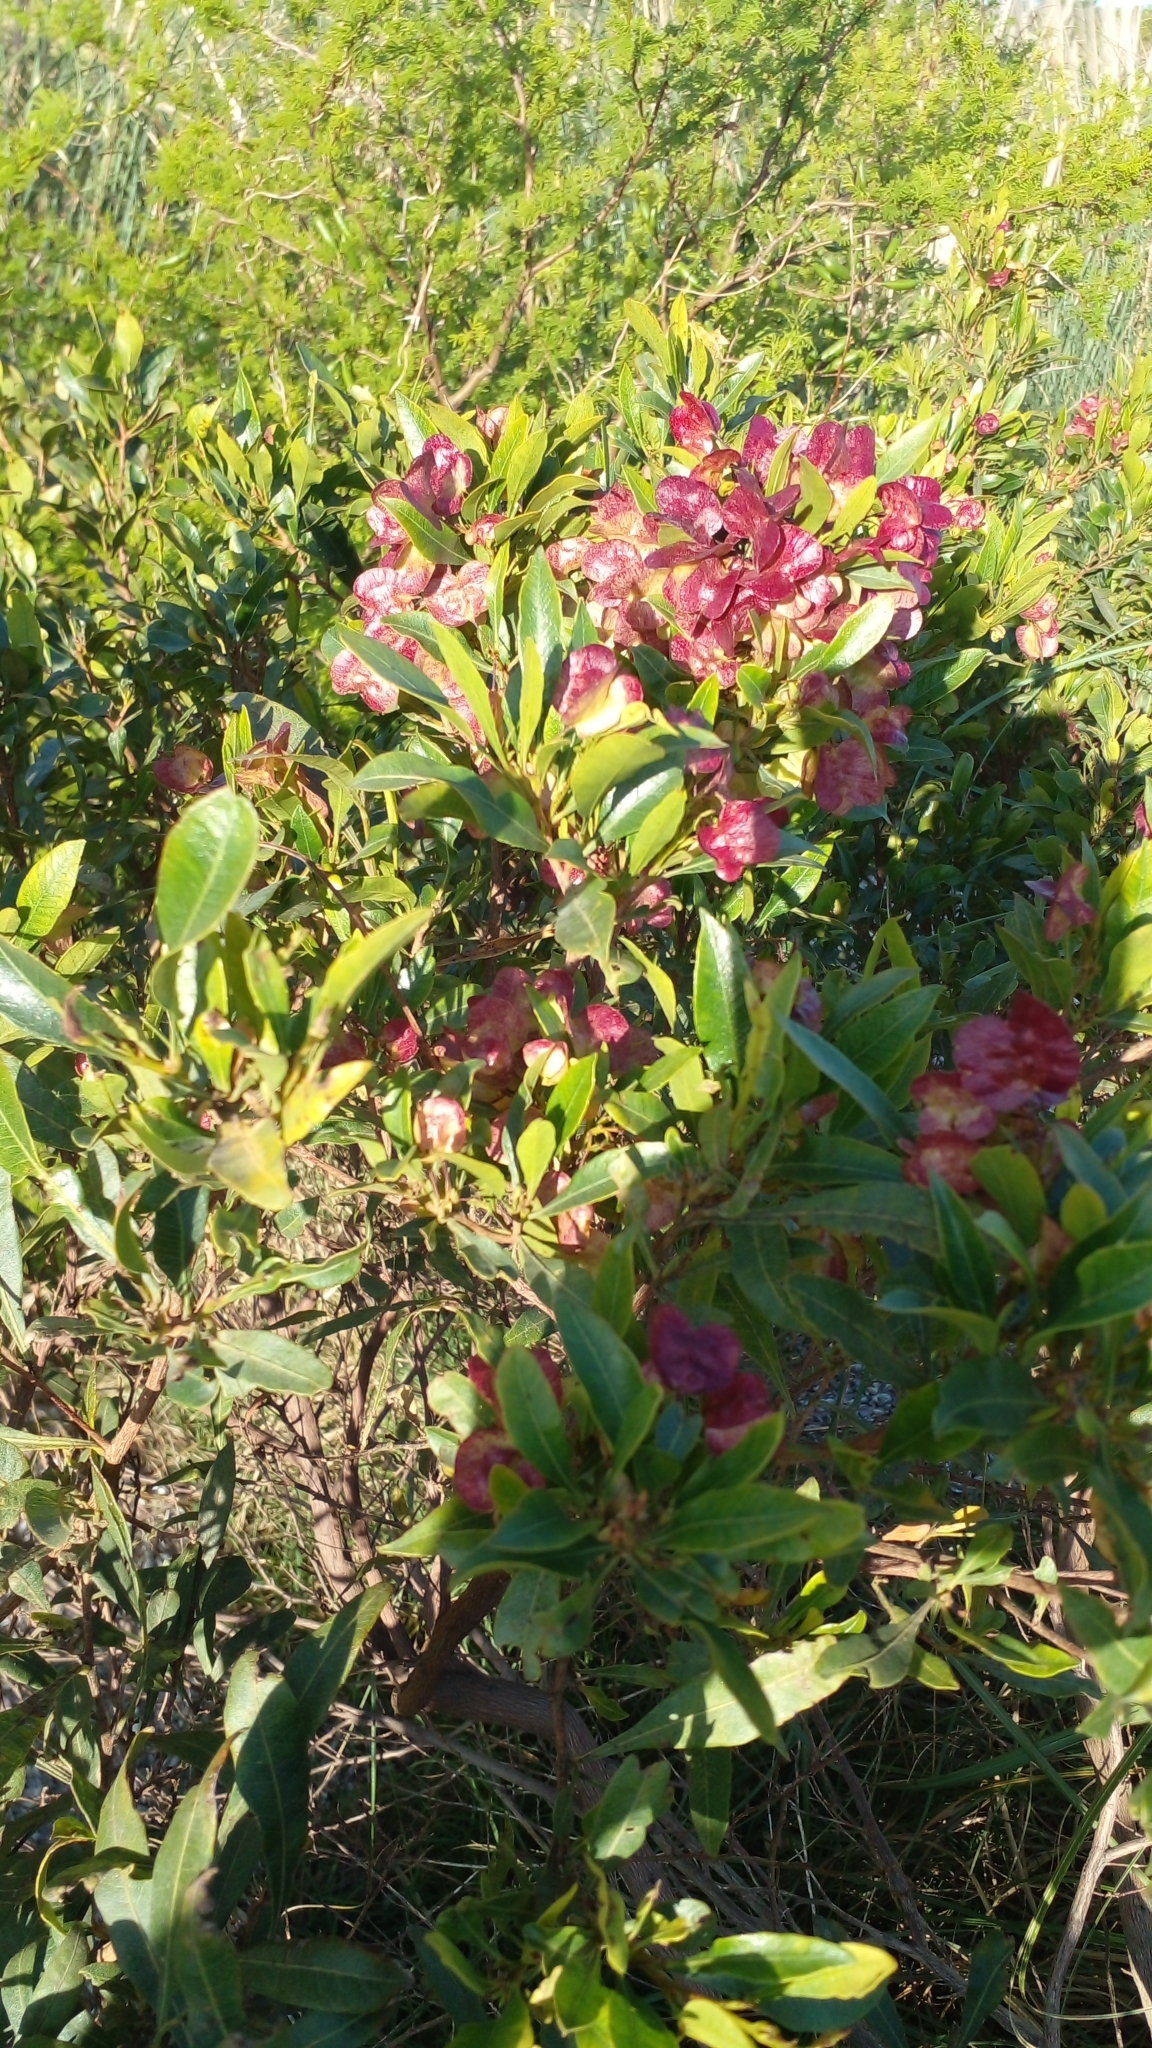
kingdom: Plantae
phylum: Tracheophyta
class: Magnoliopsida
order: Sapindales
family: Sapindaceae
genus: Dodonaea
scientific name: Dodonaea viscosa
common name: Hopbush
